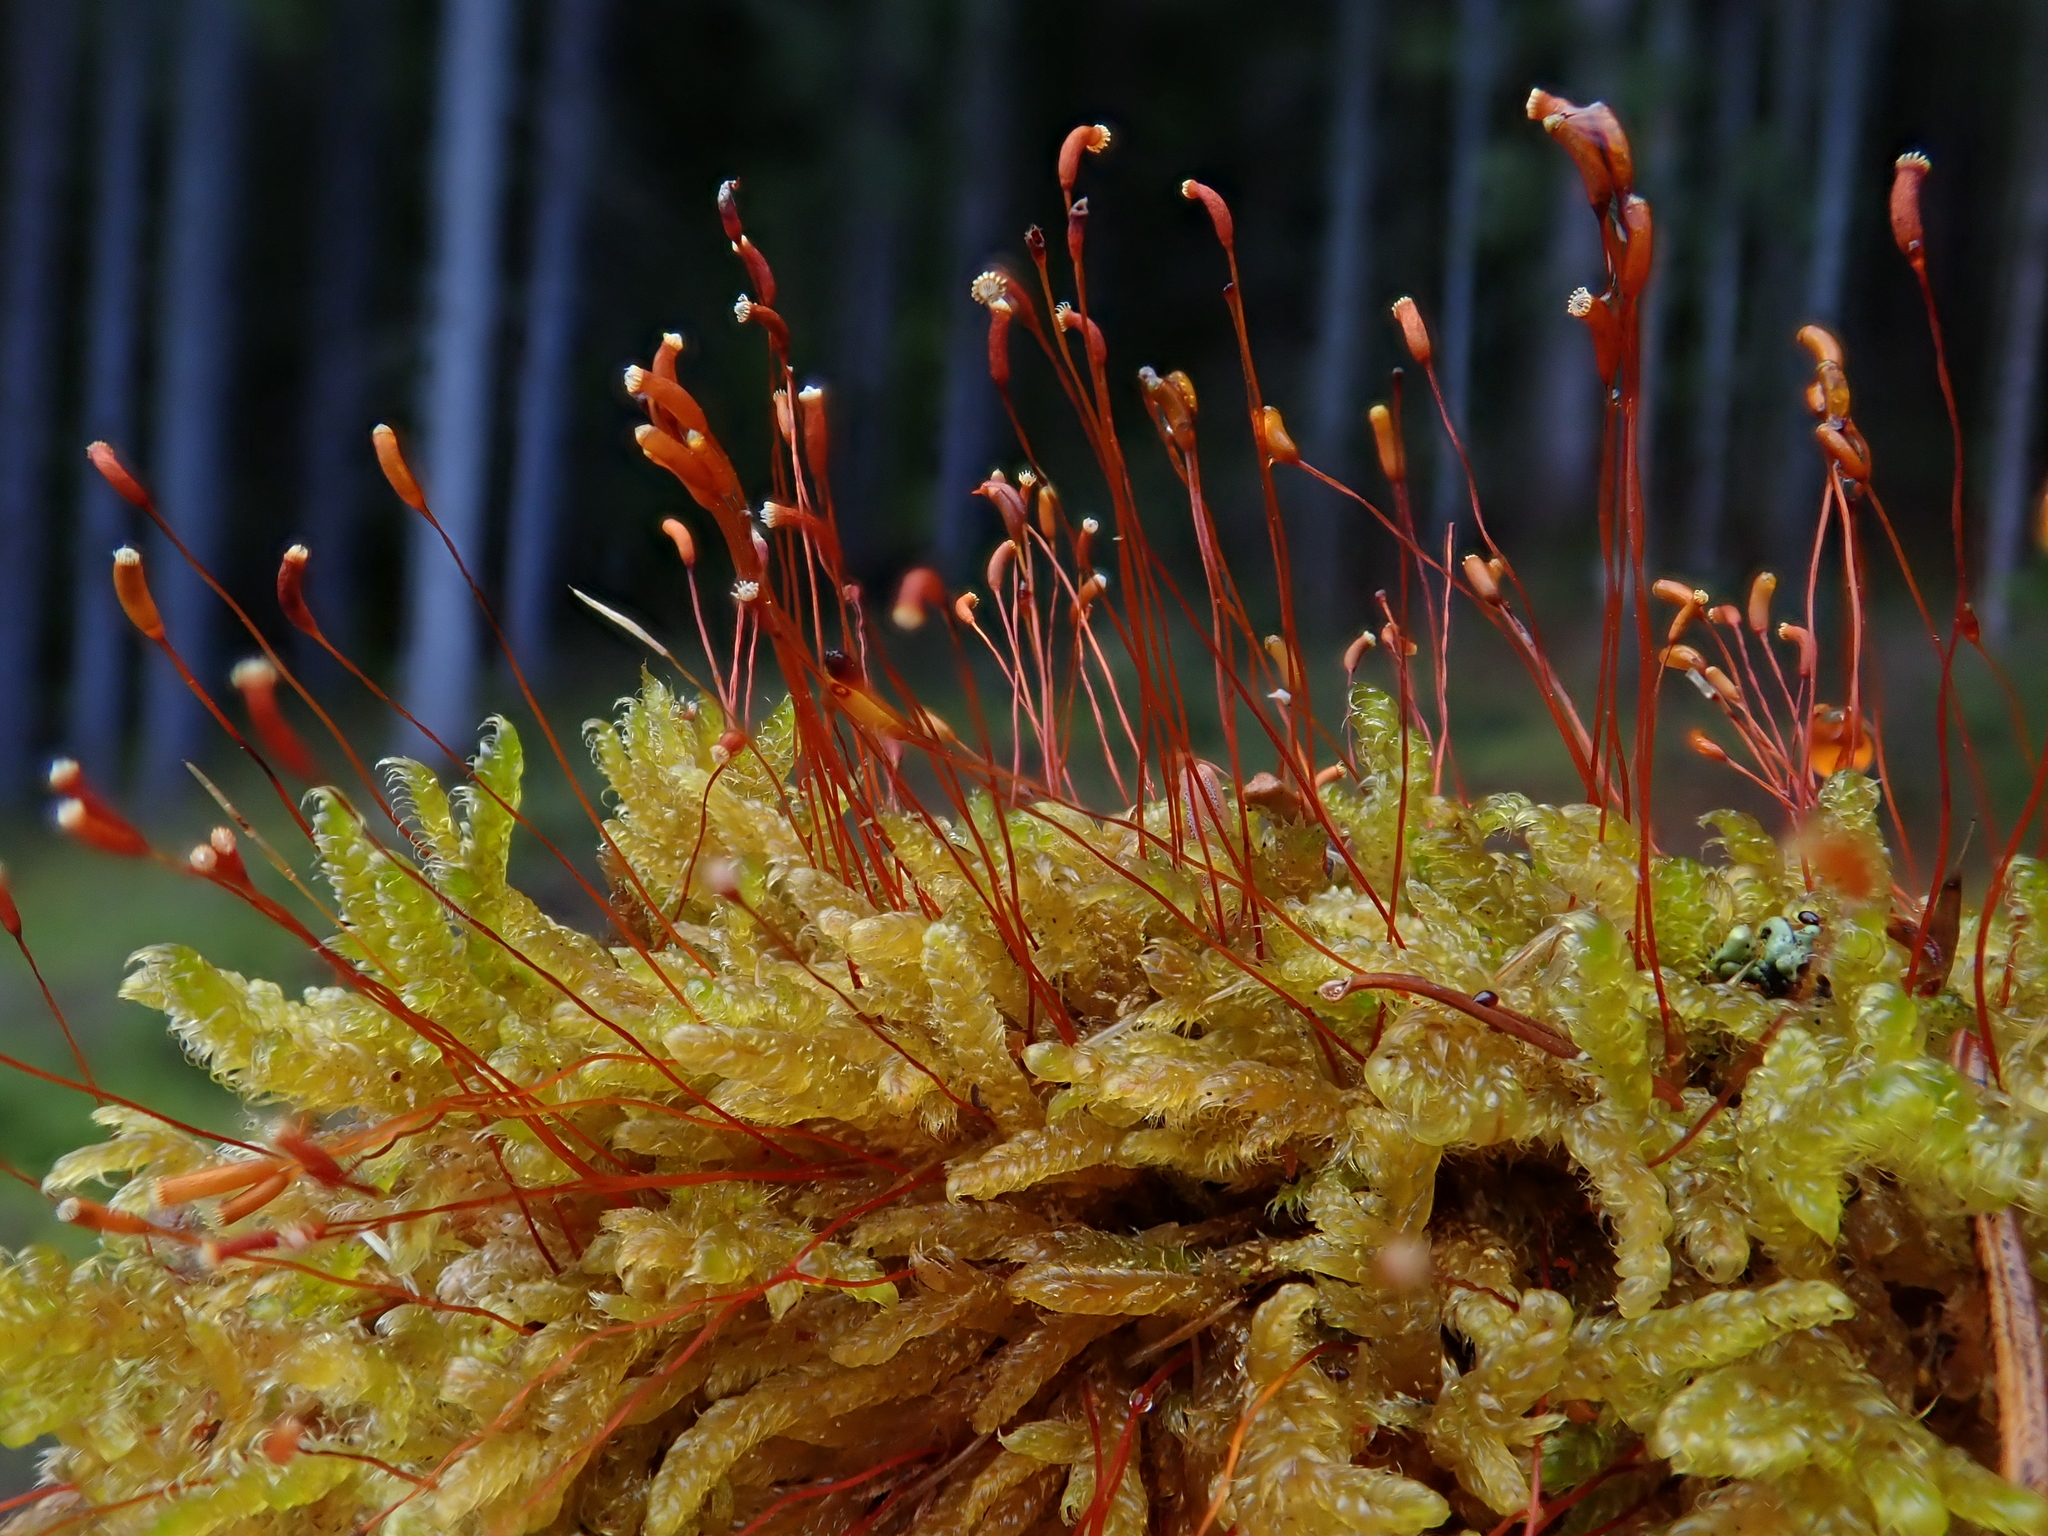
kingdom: Plantae
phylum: Bryophyta
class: Bryopsida
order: Hypnales
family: Hypnaceae
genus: Hypnum
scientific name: Hypnum cupressiforme
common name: Cypress-leaved plait-moss
